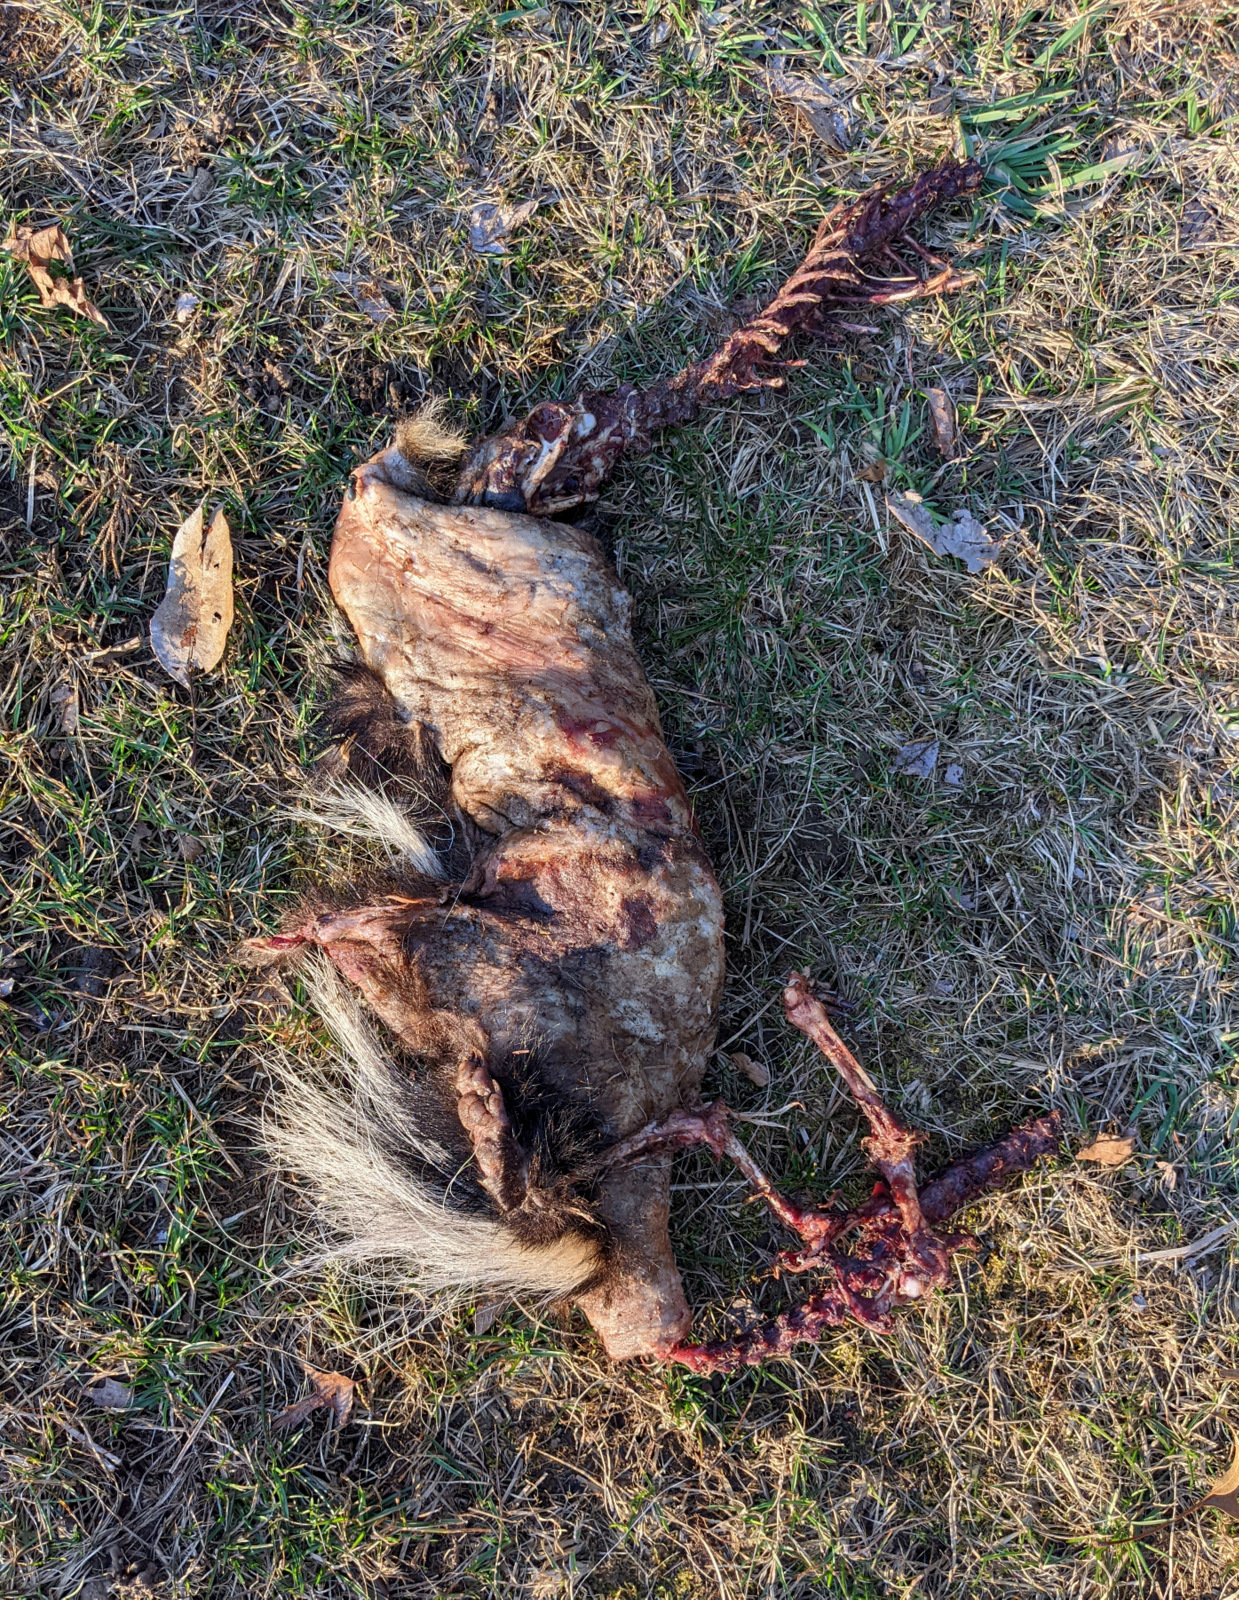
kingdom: Animalia
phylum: Chordata
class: Mammalia
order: Carnivora
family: Mephitidae
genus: Mephitis
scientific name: Mephitis mephitis
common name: Striped skunk
